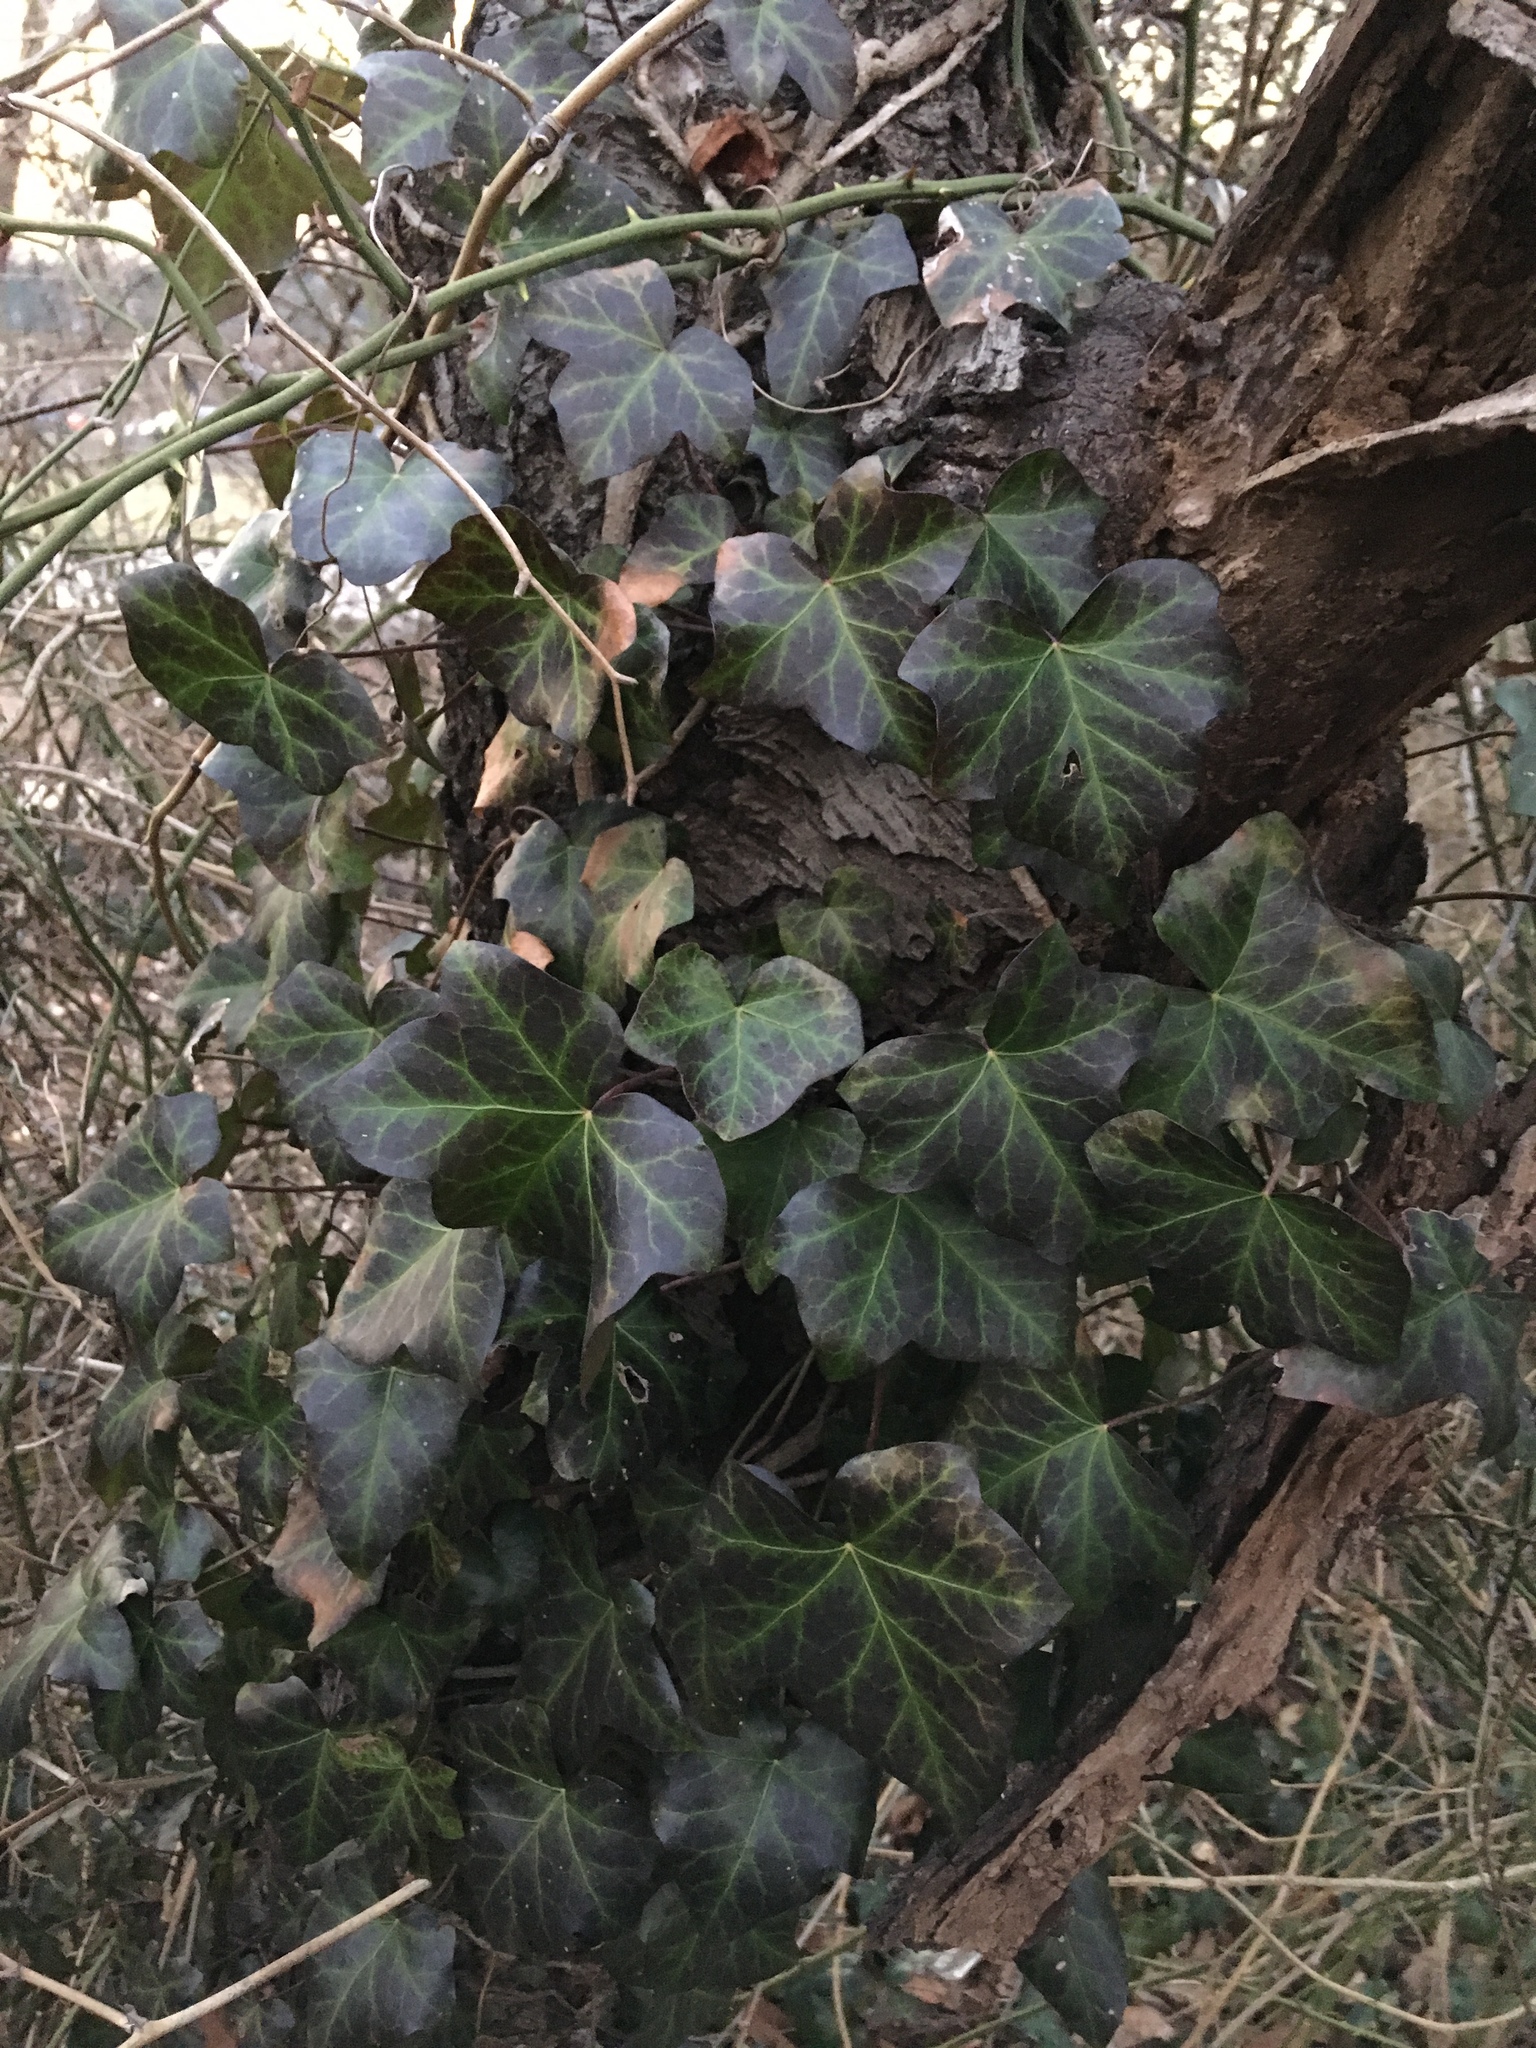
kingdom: Plantae
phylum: Tracheophyta
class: Magnoliopsida
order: Apiales
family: Araliaceae
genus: Hedera
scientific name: Hedera helix
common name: Ivy
